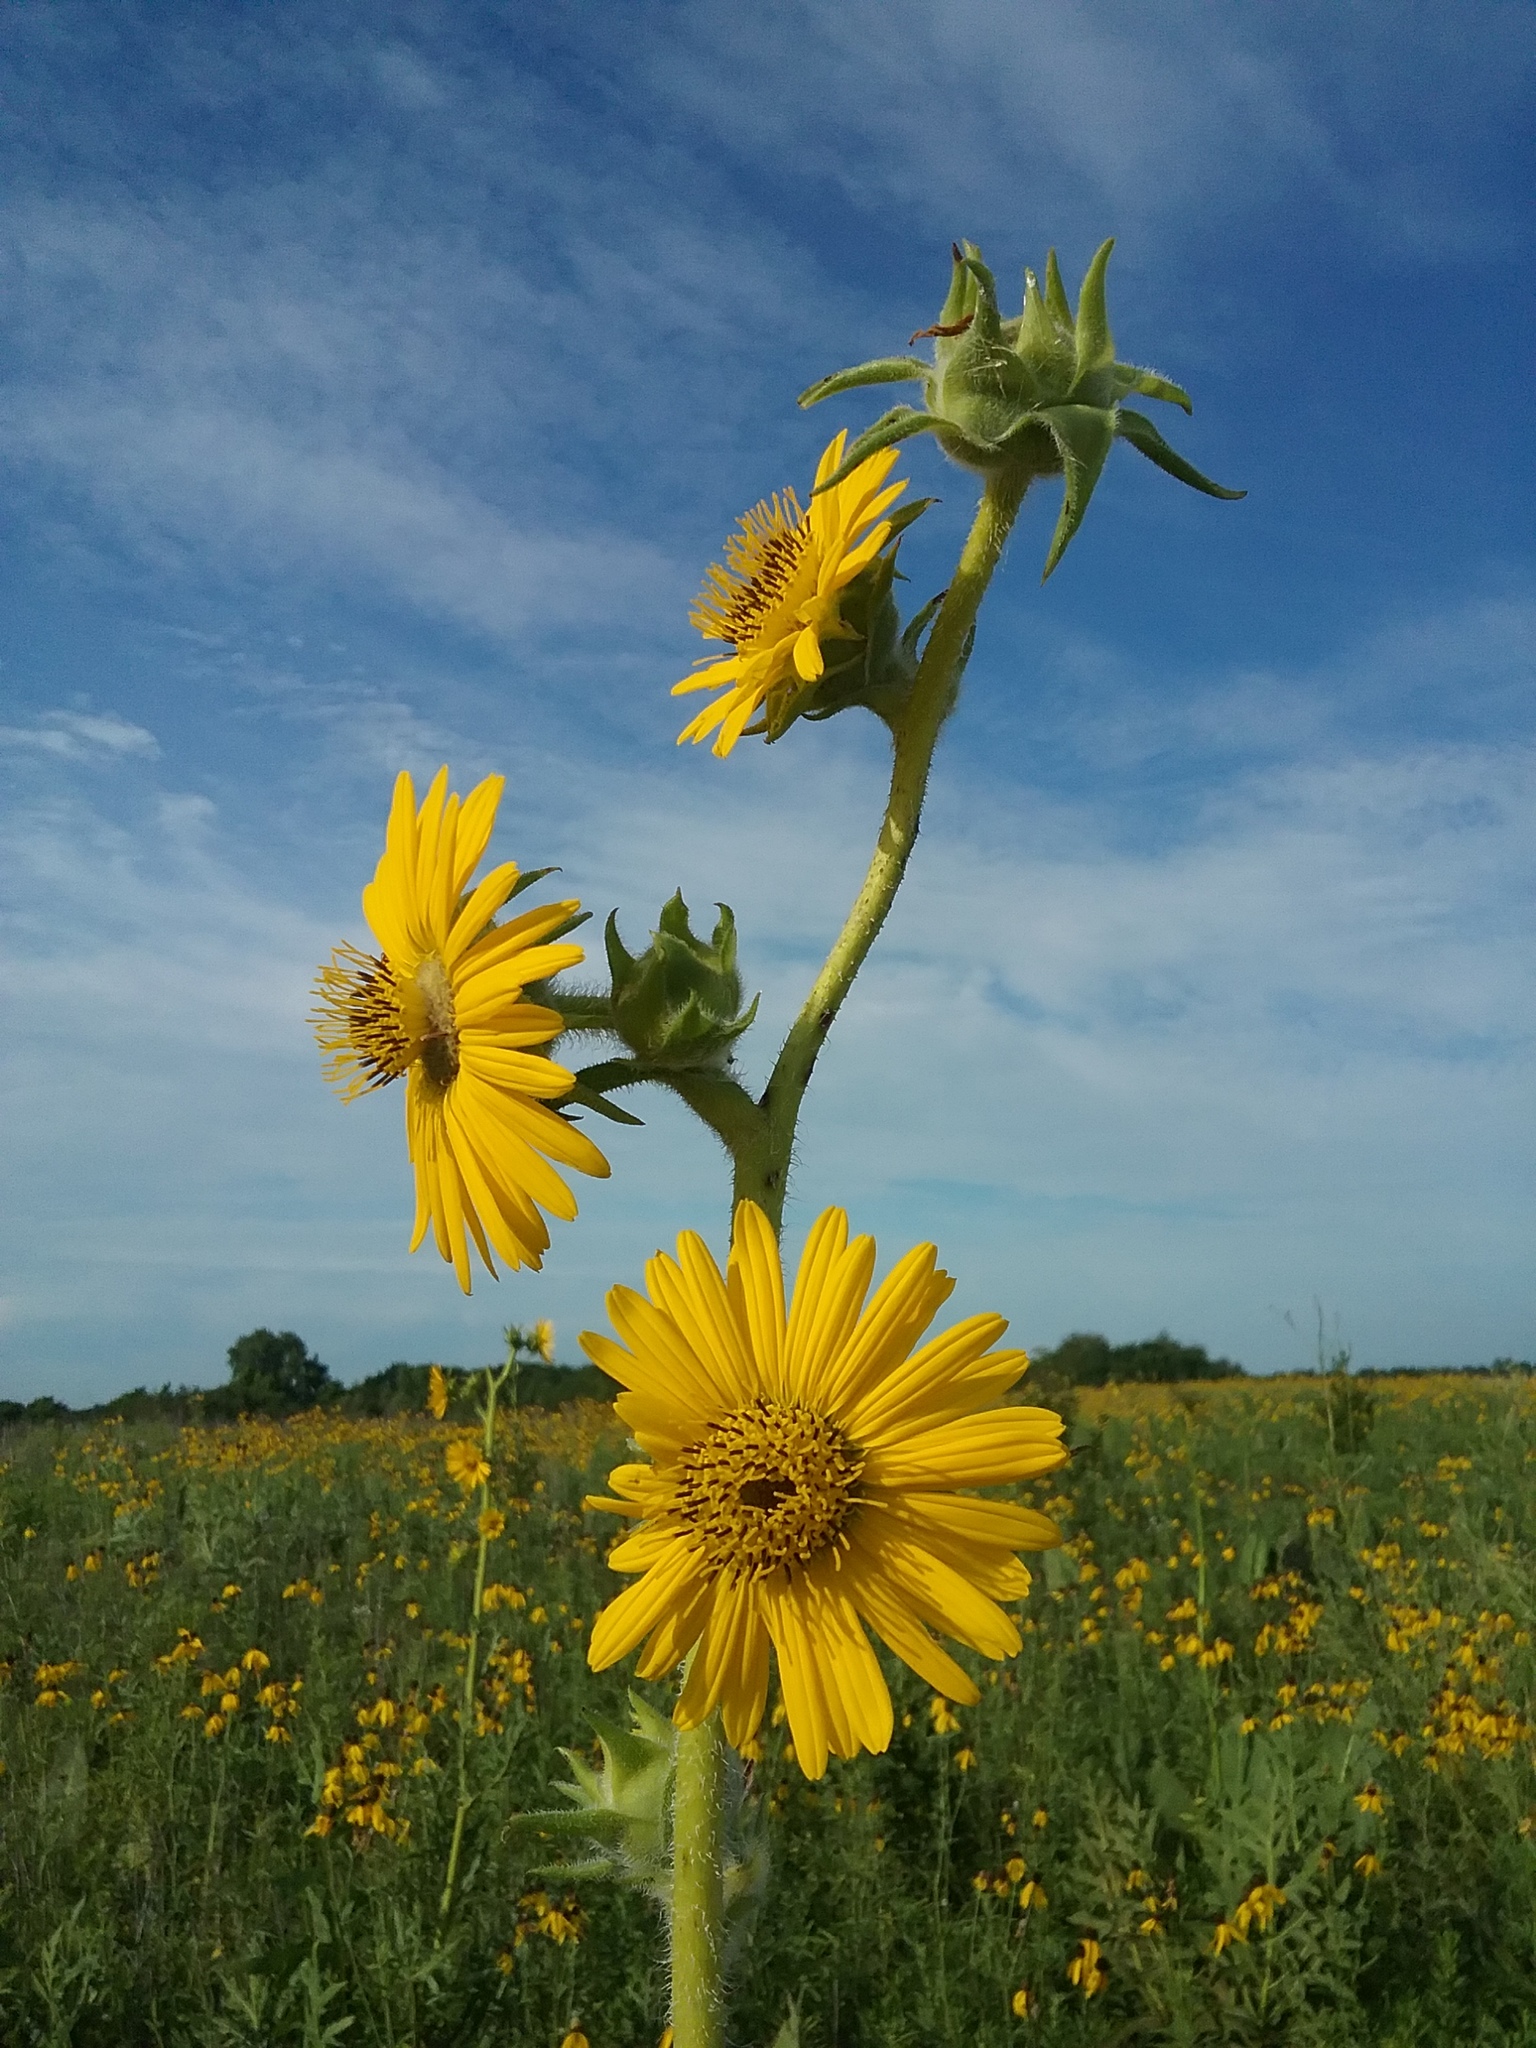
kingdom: Plantae
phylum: Tracheophyta
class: Magnoliopsida
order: Asterales
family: Asteraceae
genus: Silphium
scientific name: Silphium laciniatum
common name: Polarplant
